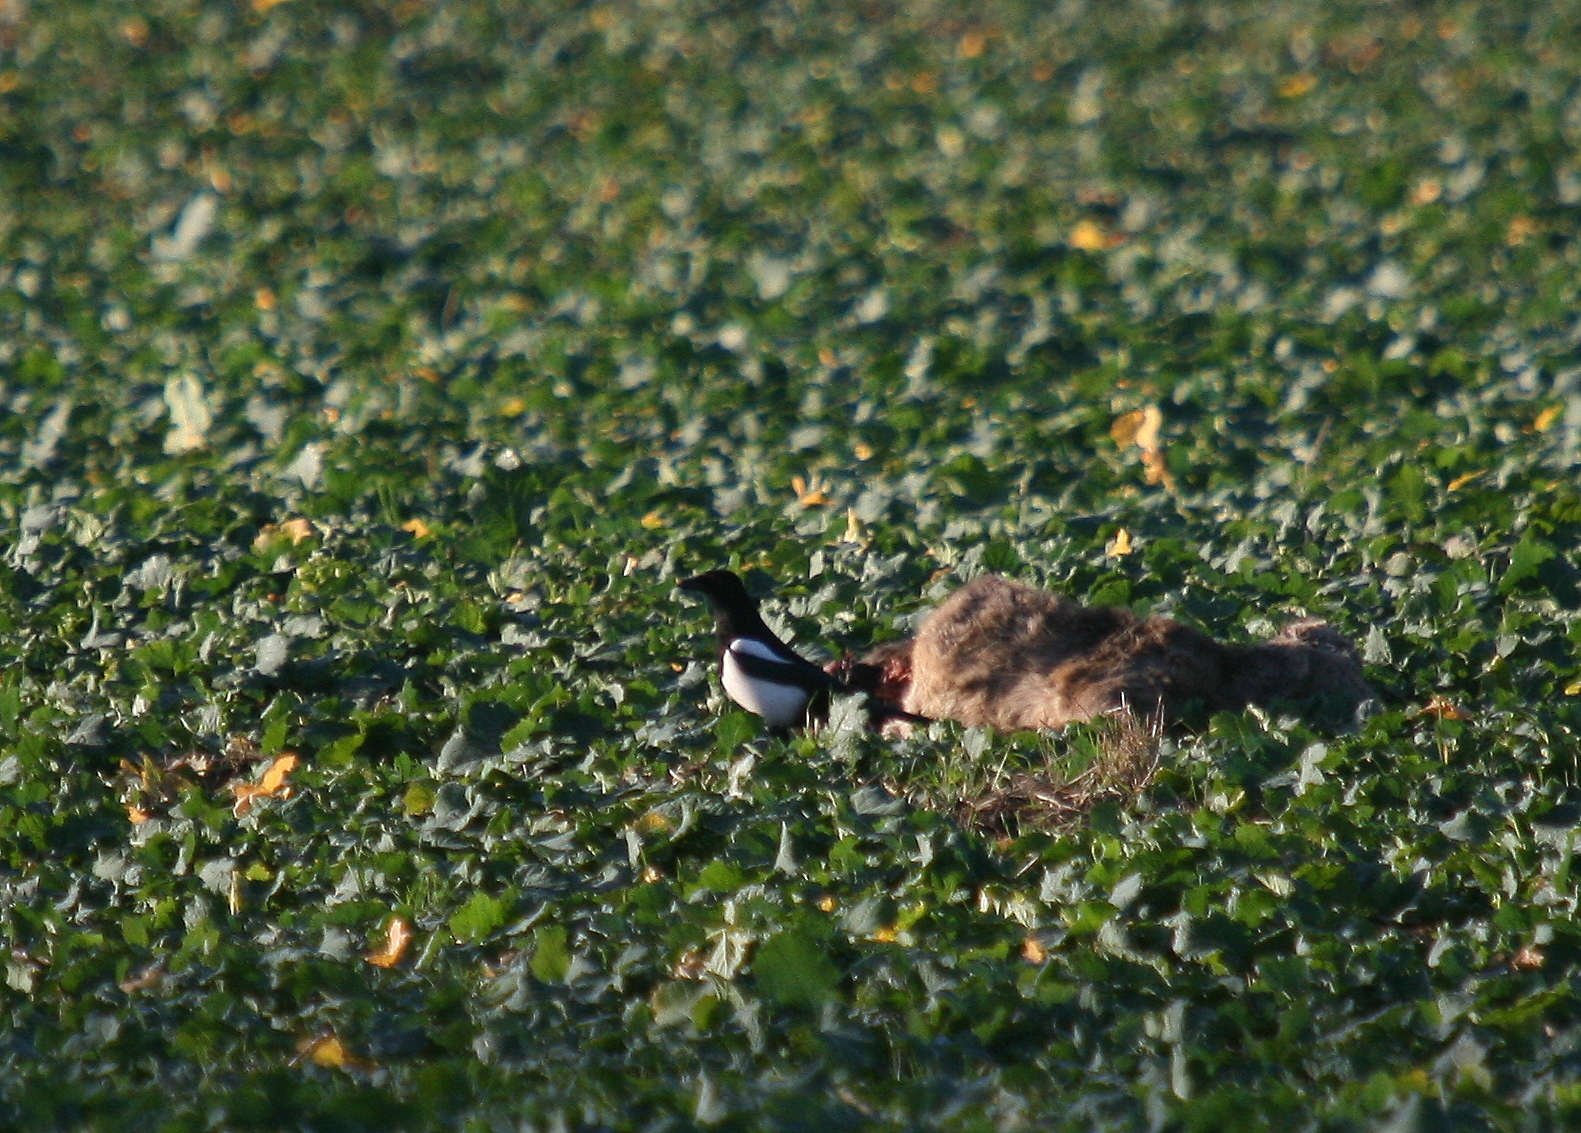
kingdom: Animalia
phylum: Chordata
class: Aves
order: Passeriformes
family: Corvidae
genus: Pica
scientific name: Pica pica
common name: Eurasian magpie
